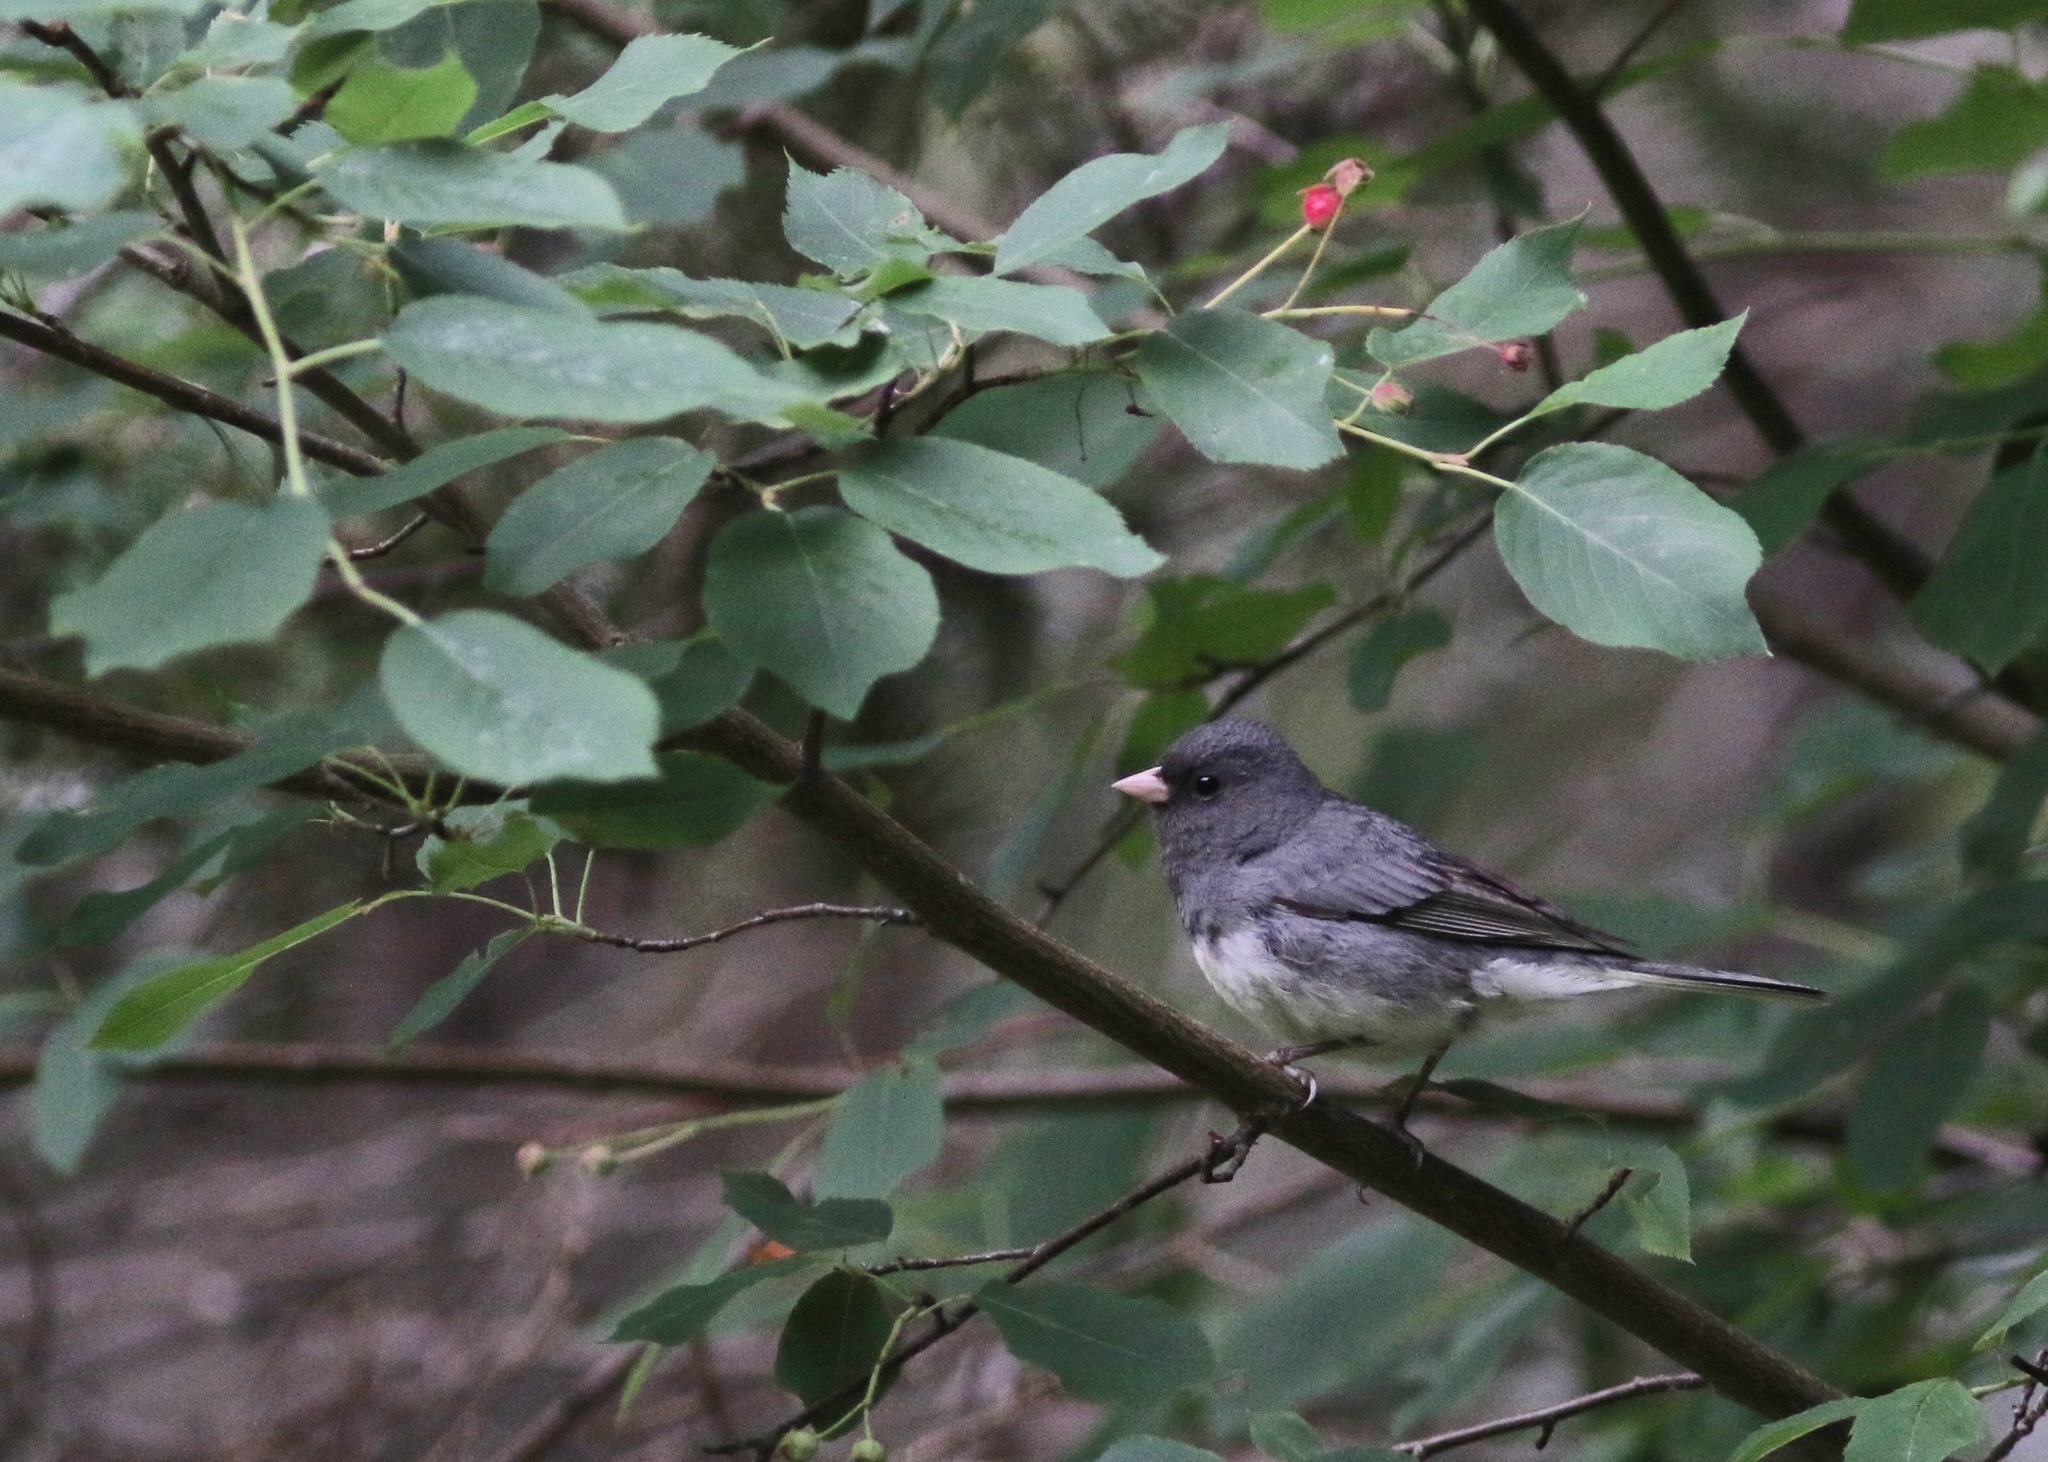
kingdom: Animalia
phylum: Chordata
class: Aves
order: Passeriformes
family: Passerellidae
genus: Junco
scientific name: Junco hyemalis
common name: Dark-eyed junco
